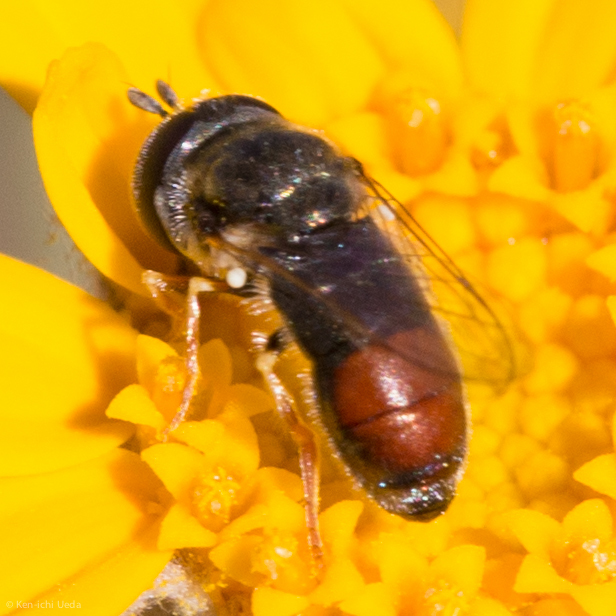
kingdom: Animalia
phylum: Arthropoda
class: Insecta
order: Diptera
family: Syrphidae
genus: Paragus
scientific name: Paragus haemorrhous
